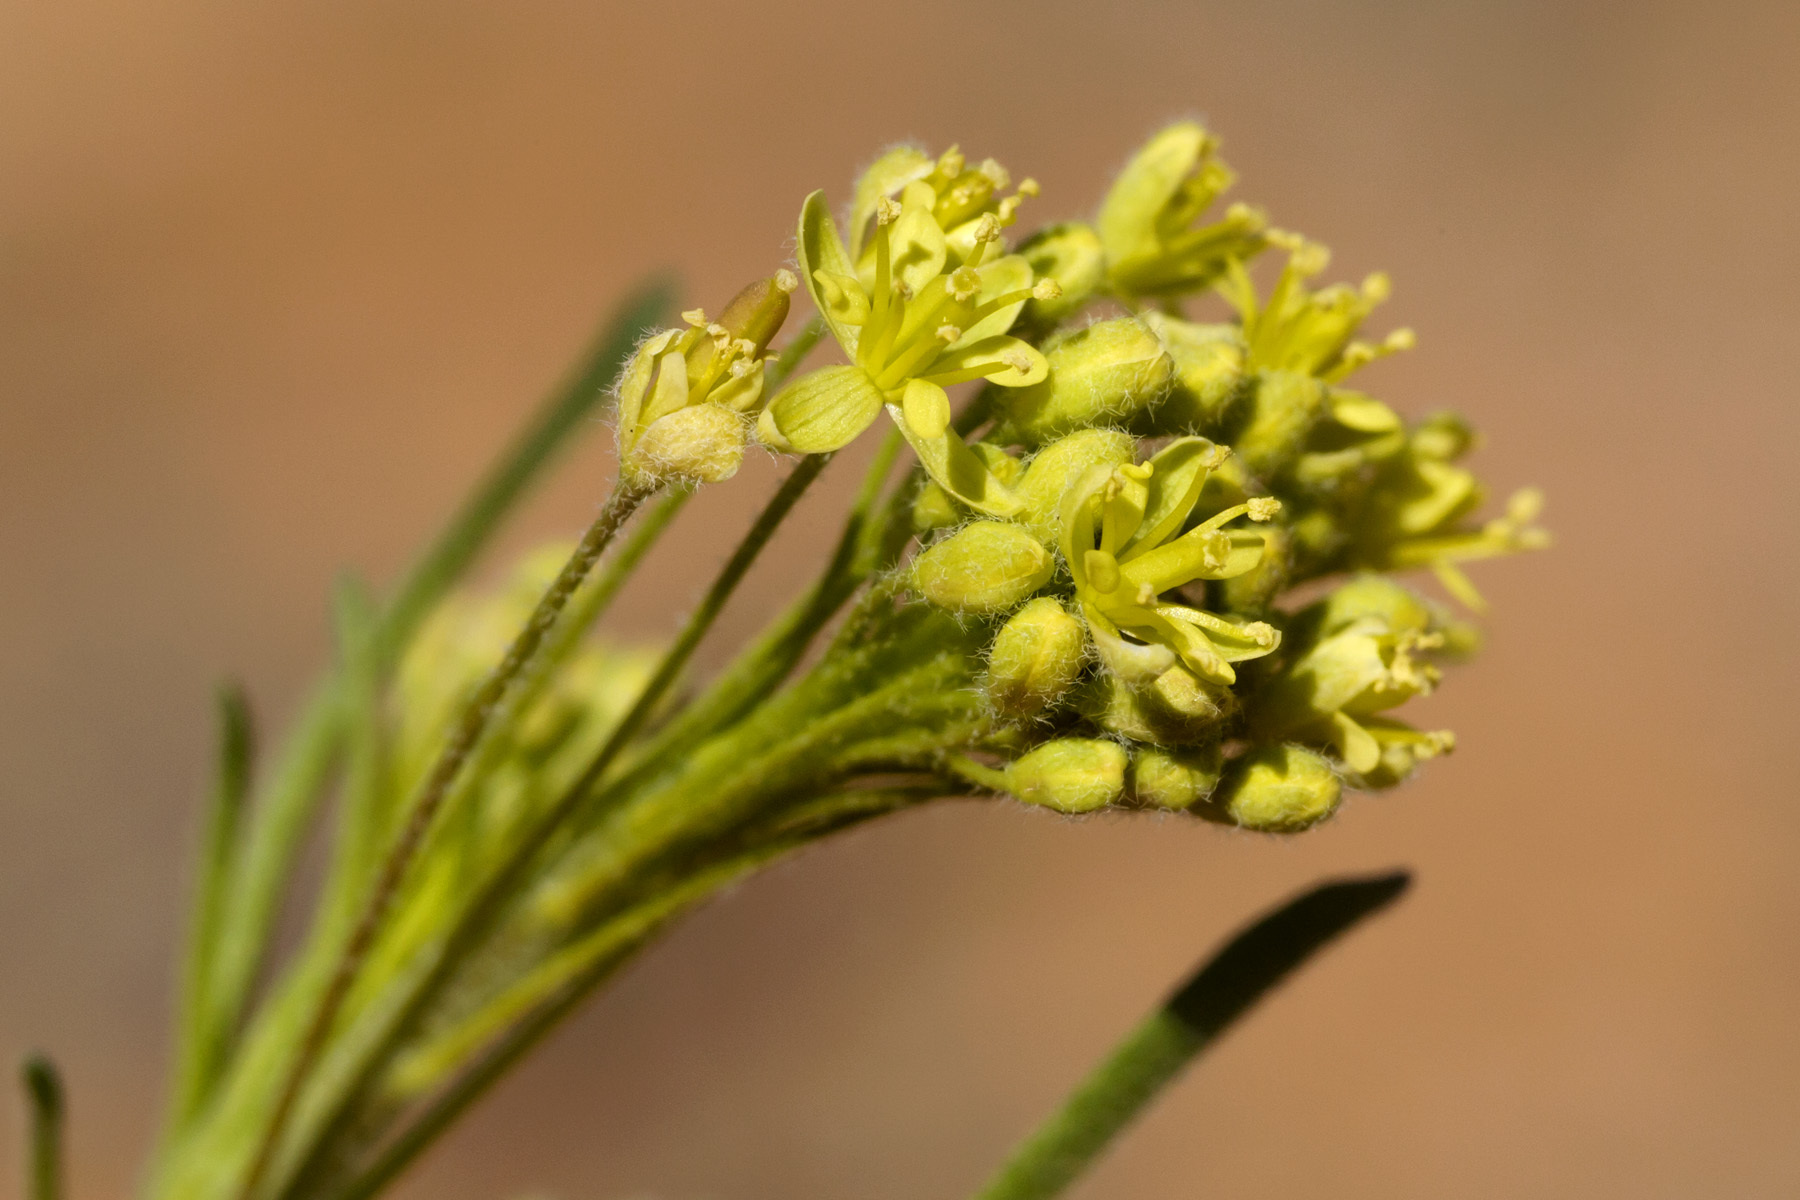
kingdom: Plantae
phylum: Tracheophyta
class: Magnoliopsida
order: Brassicales
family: Brassicaceae
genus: Descurainia
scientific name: Descurainia pinnata
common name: Western tansy mustard
